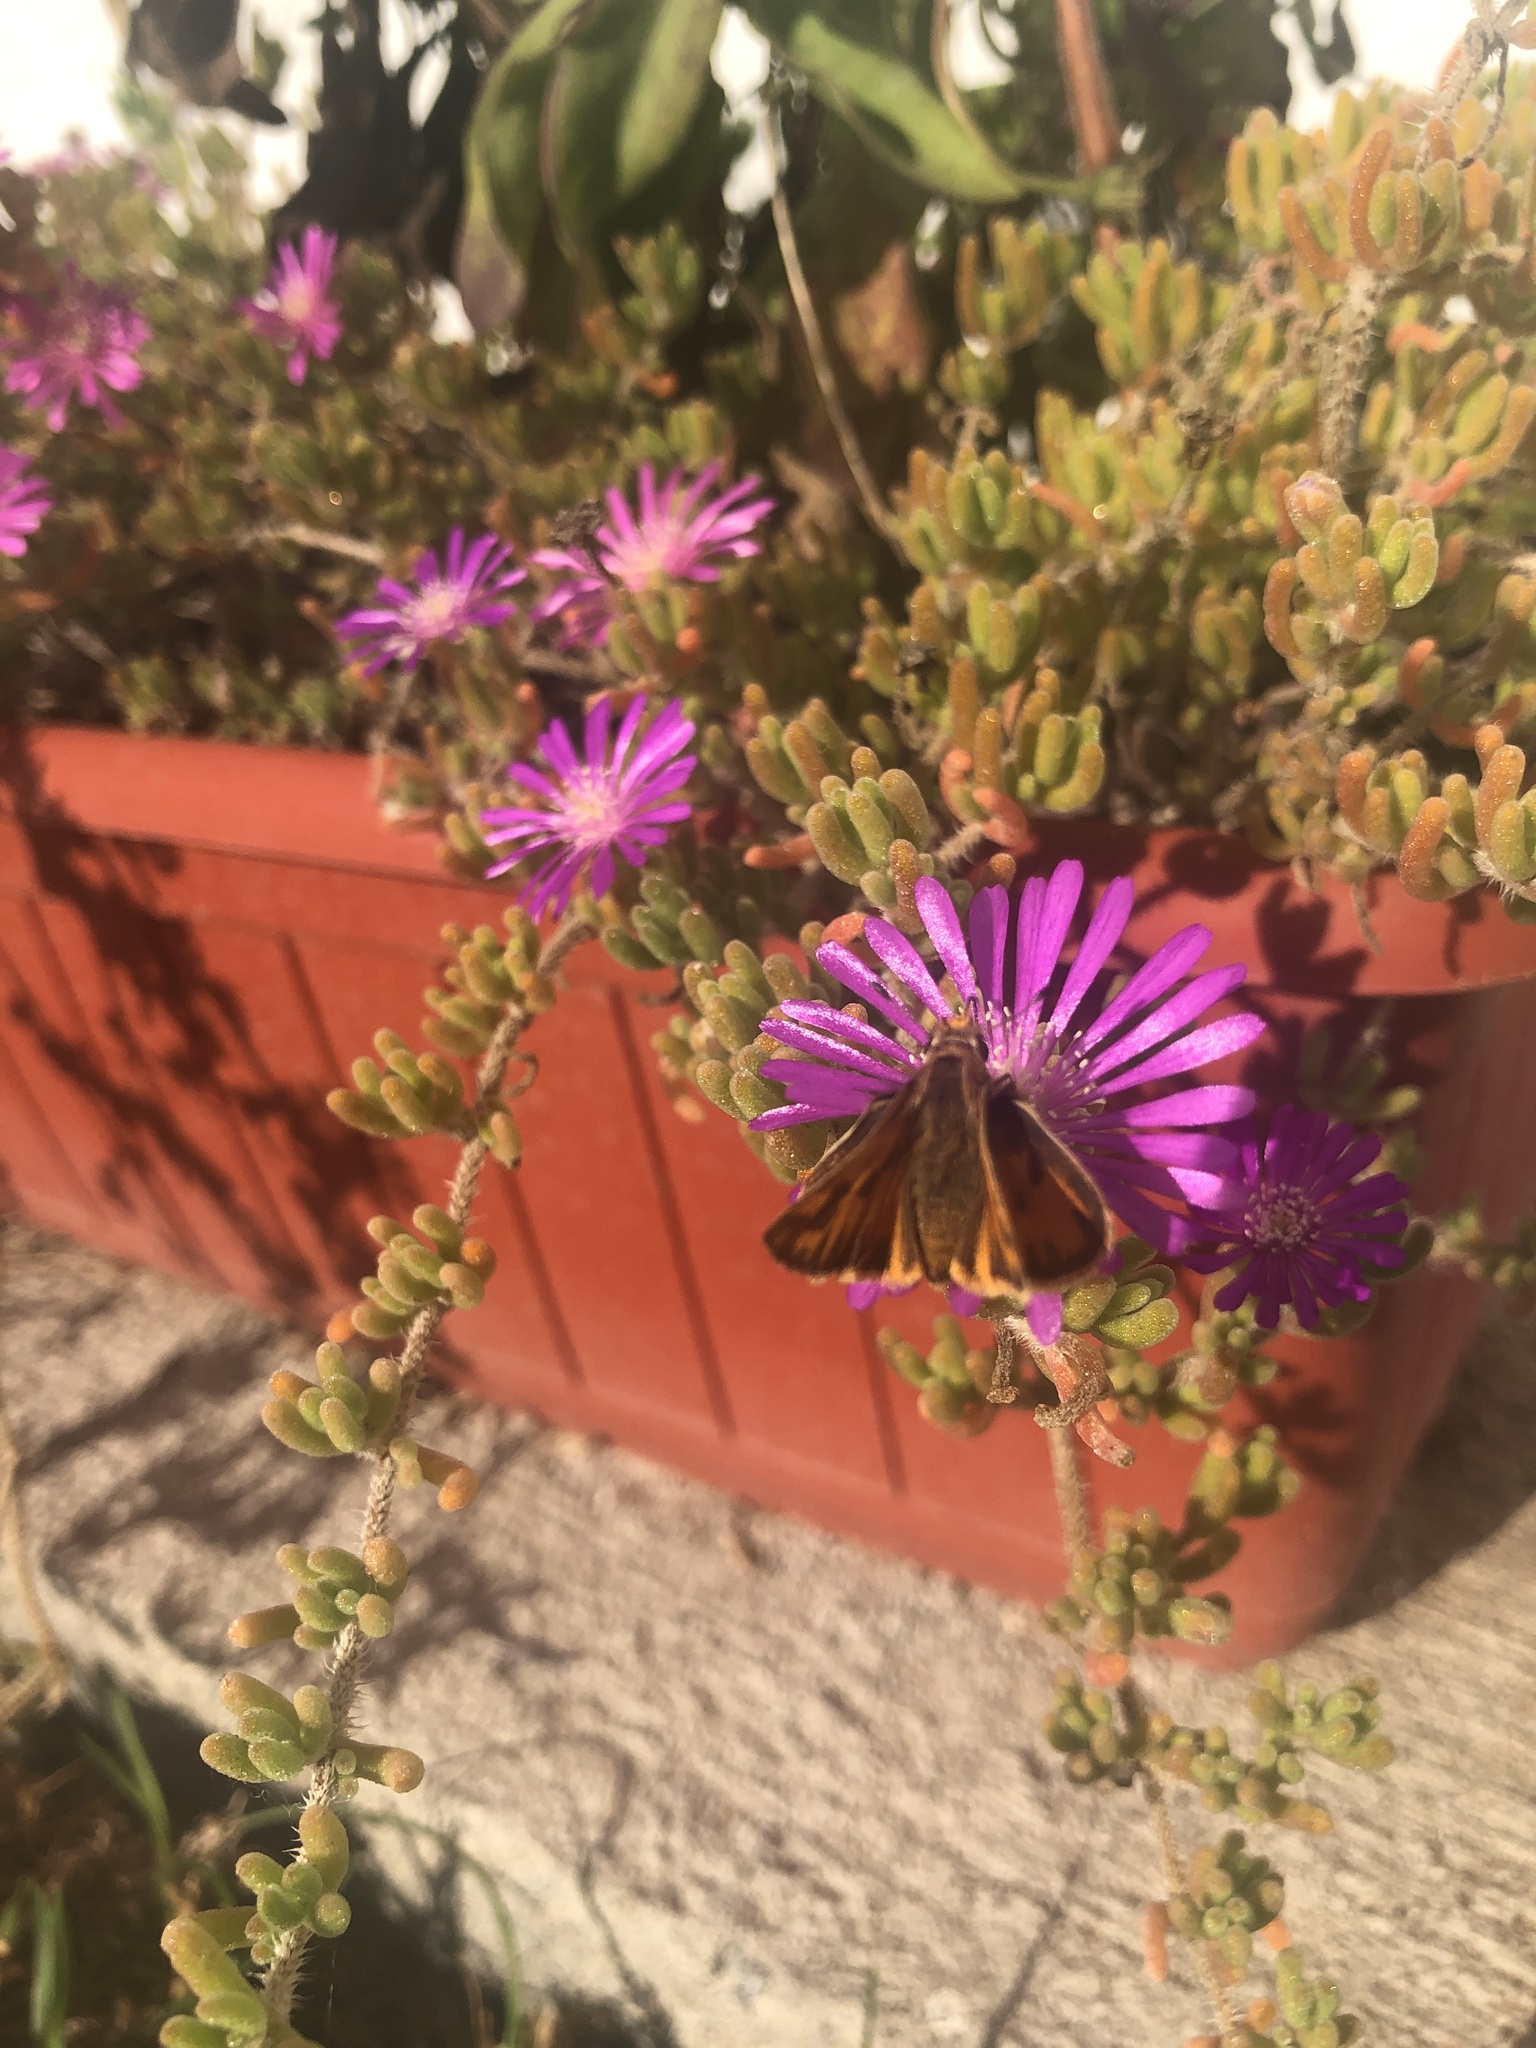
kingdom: Animalia
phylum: Arthropoda
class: Insecta
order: Lepidoptera
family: Hesperiidae
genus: Hylephila
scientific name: Hylephila
